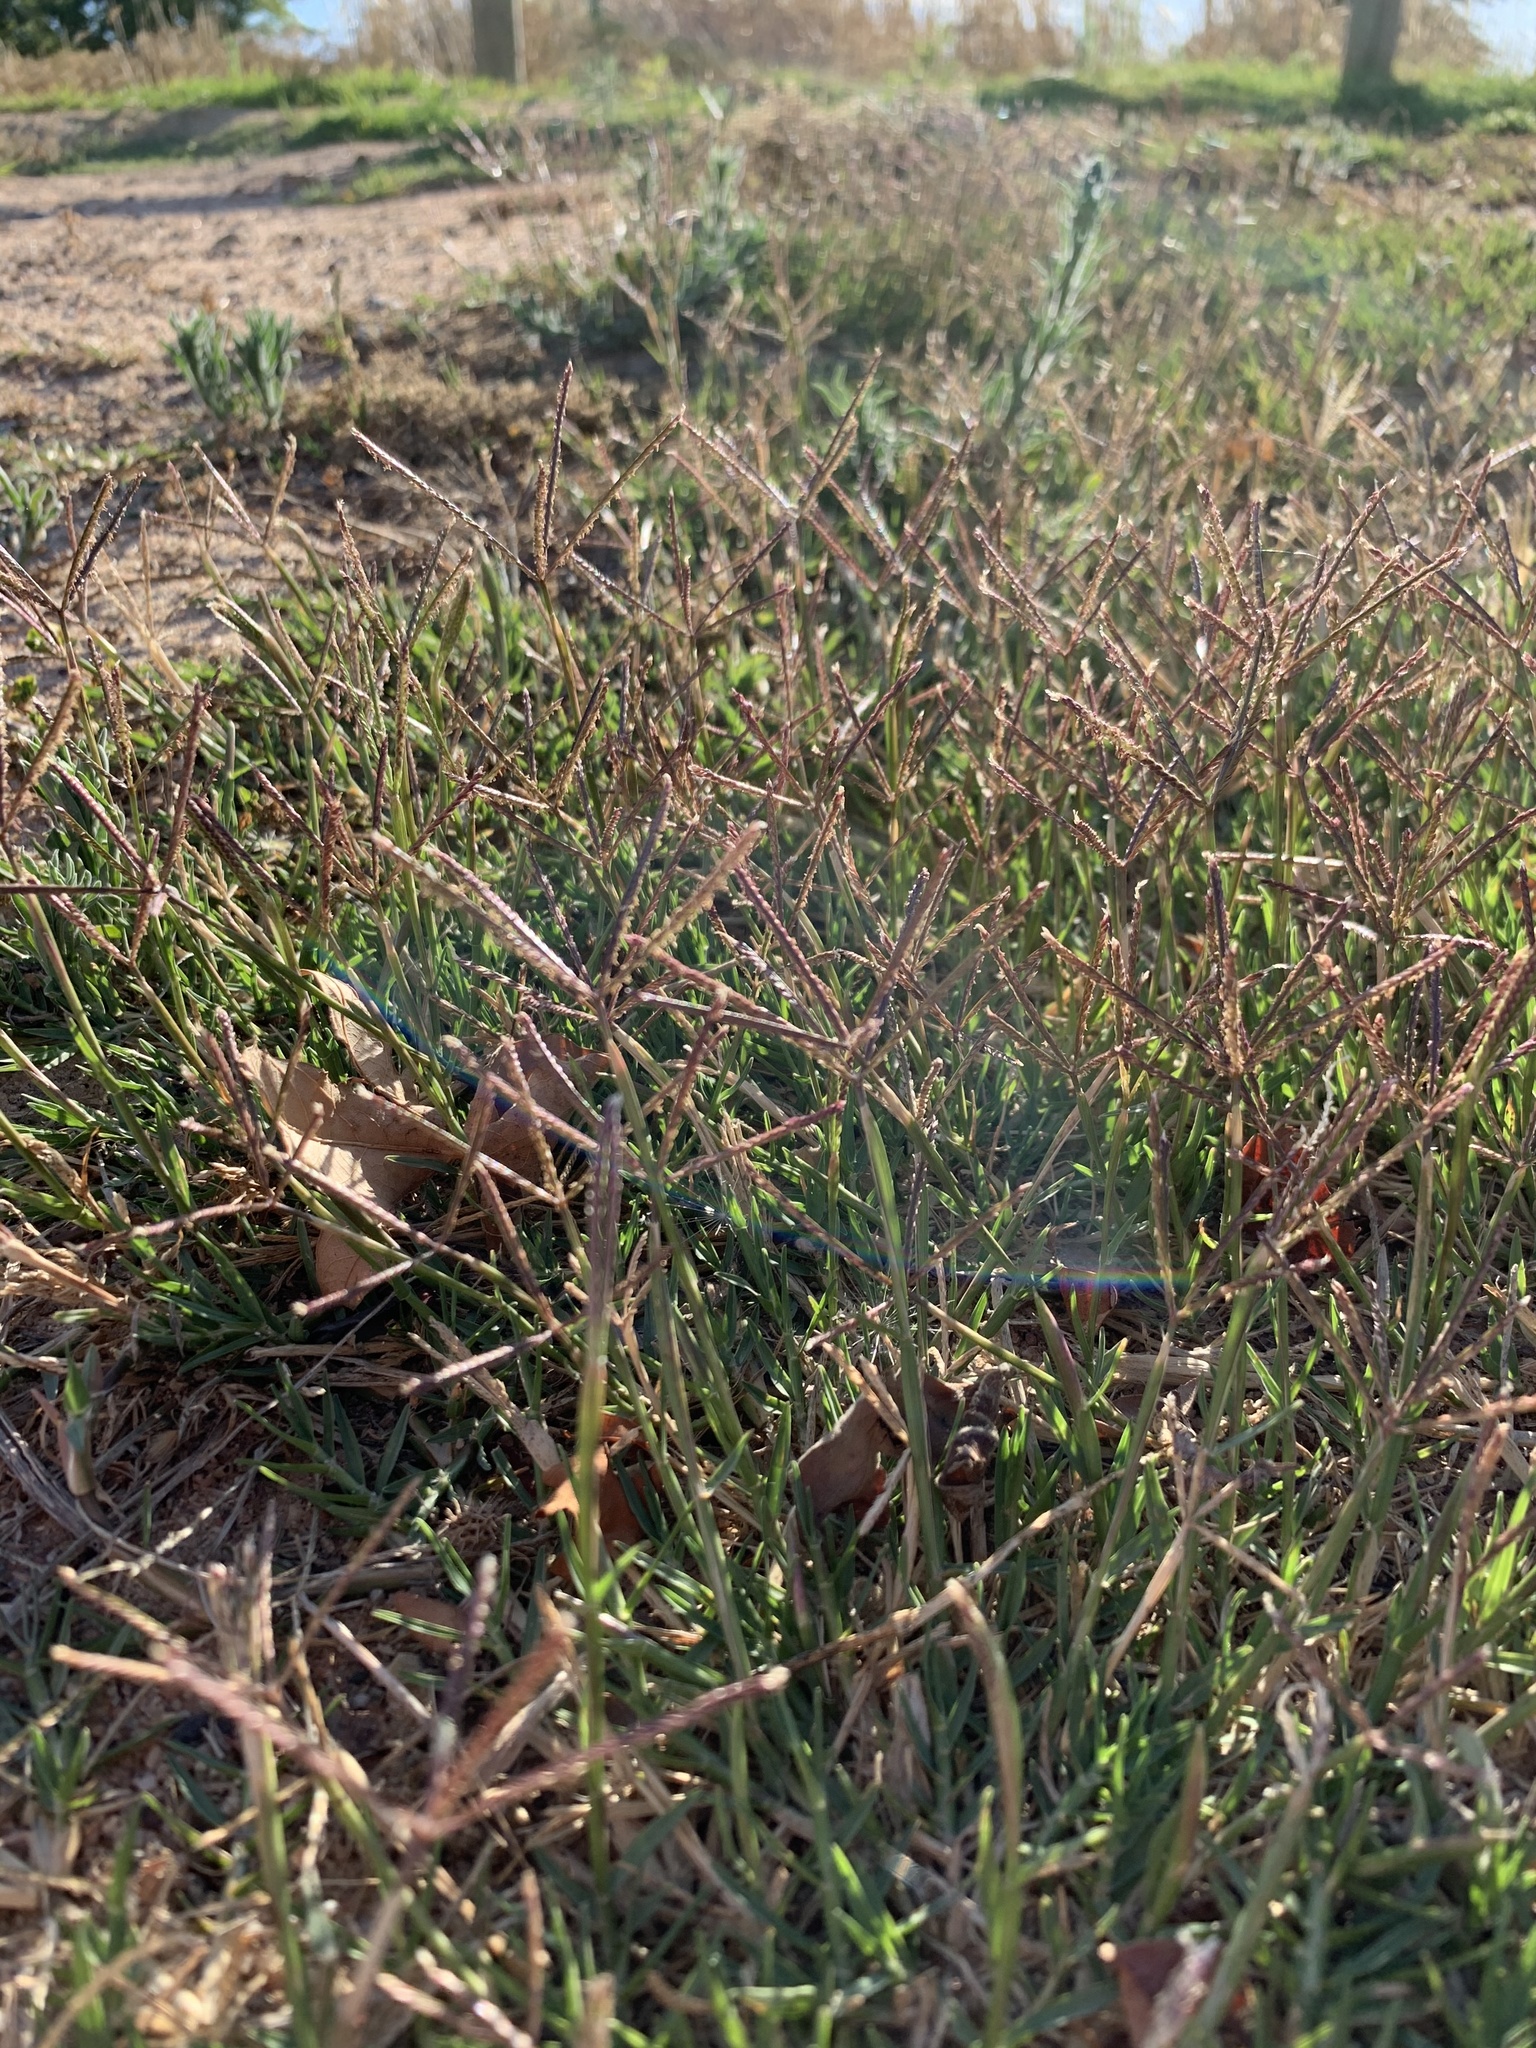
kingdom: Plantae
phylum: Tracheophyta
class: Liliopsida
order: Poales
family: Poaceae
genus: Cynodon
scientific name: Cynodon dactylon
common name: Bermuda grass
